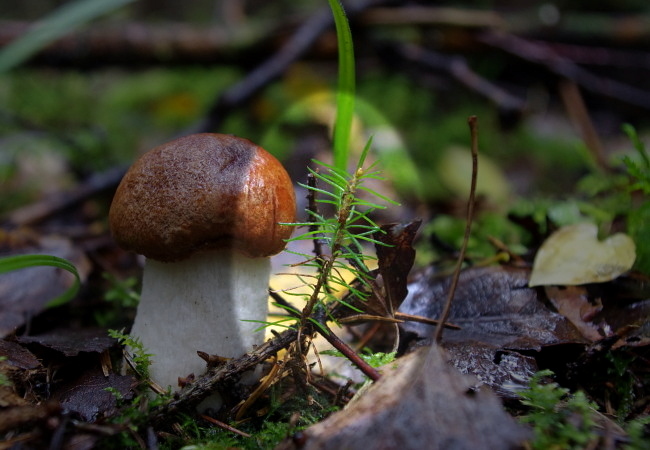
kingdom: Plantae
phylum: Tracheophyta
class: Pinopsida
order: Pinales
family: Pinaceae
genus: Picea
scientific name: Picea abies
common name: Norway spruce
